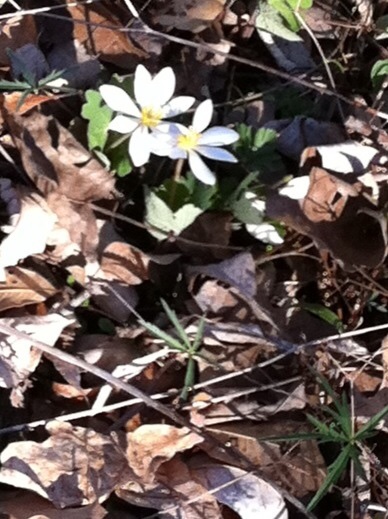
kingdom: Plantae
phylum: Tracheophyta
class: Magnoliopsida
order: Ranunculales
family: Papaveraceae
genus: Sanguinaria
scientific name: Sanguinaria canadensis
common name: Bloodroot
